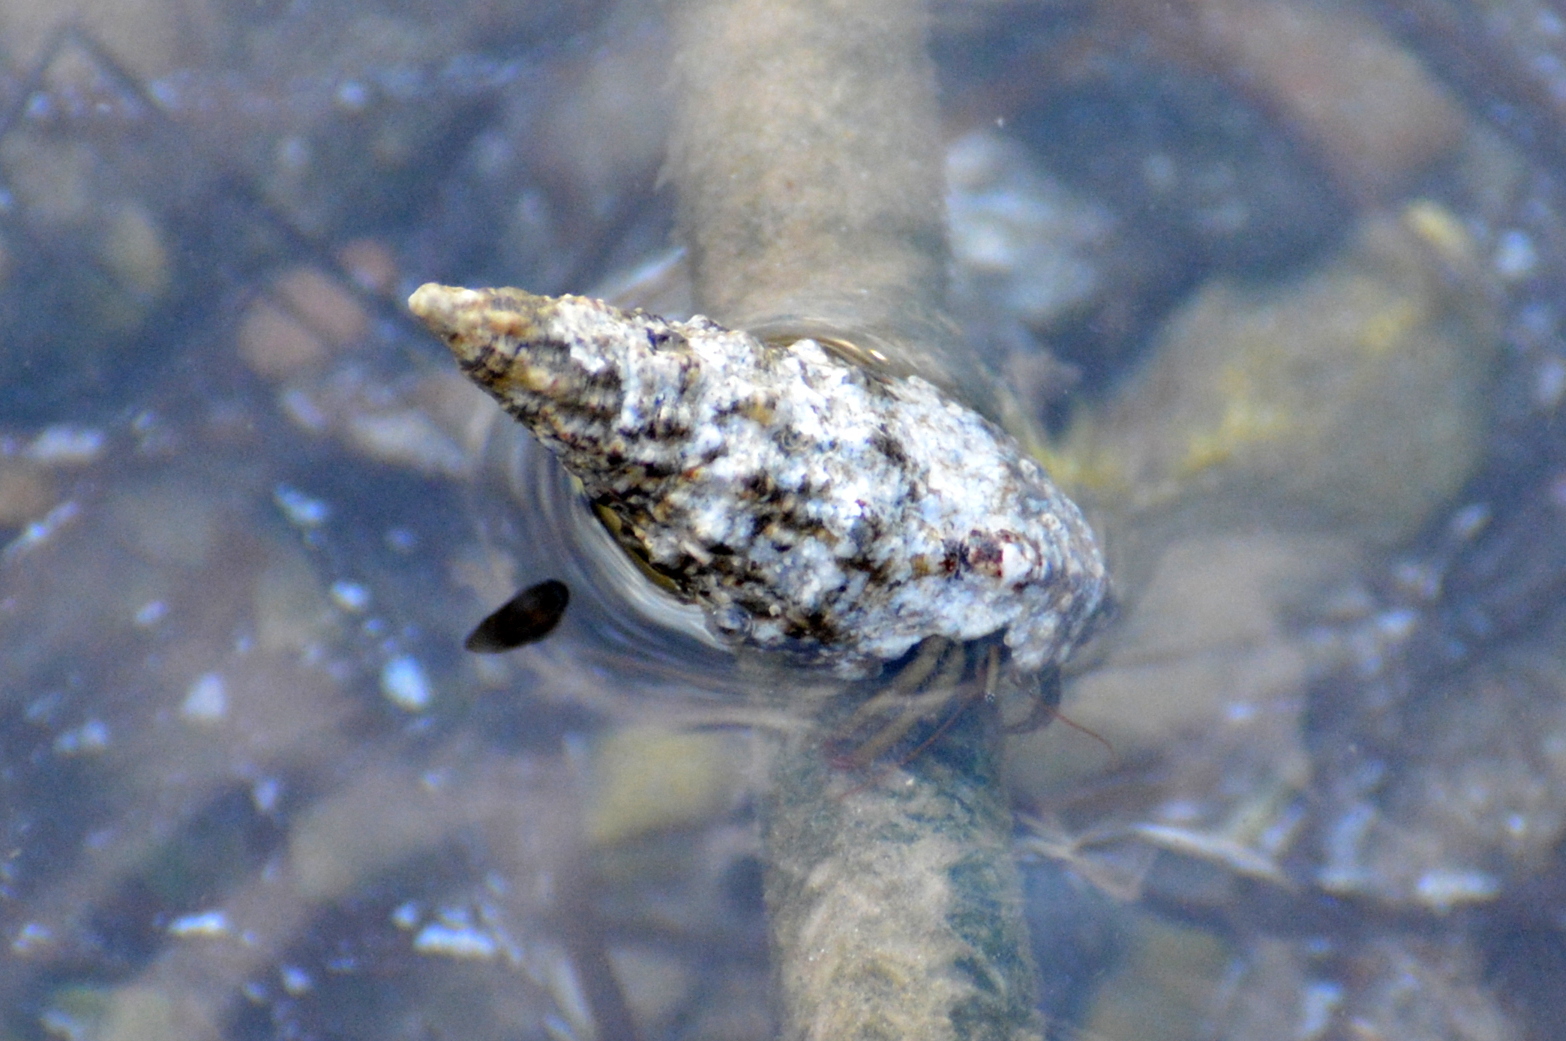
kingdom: Animalia
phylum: Arthropoda
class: Malacostraca
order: Decapoda
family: Diogenidae
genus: Clibanarius
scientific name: Clibanarius erythropus
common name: Hermit crab
